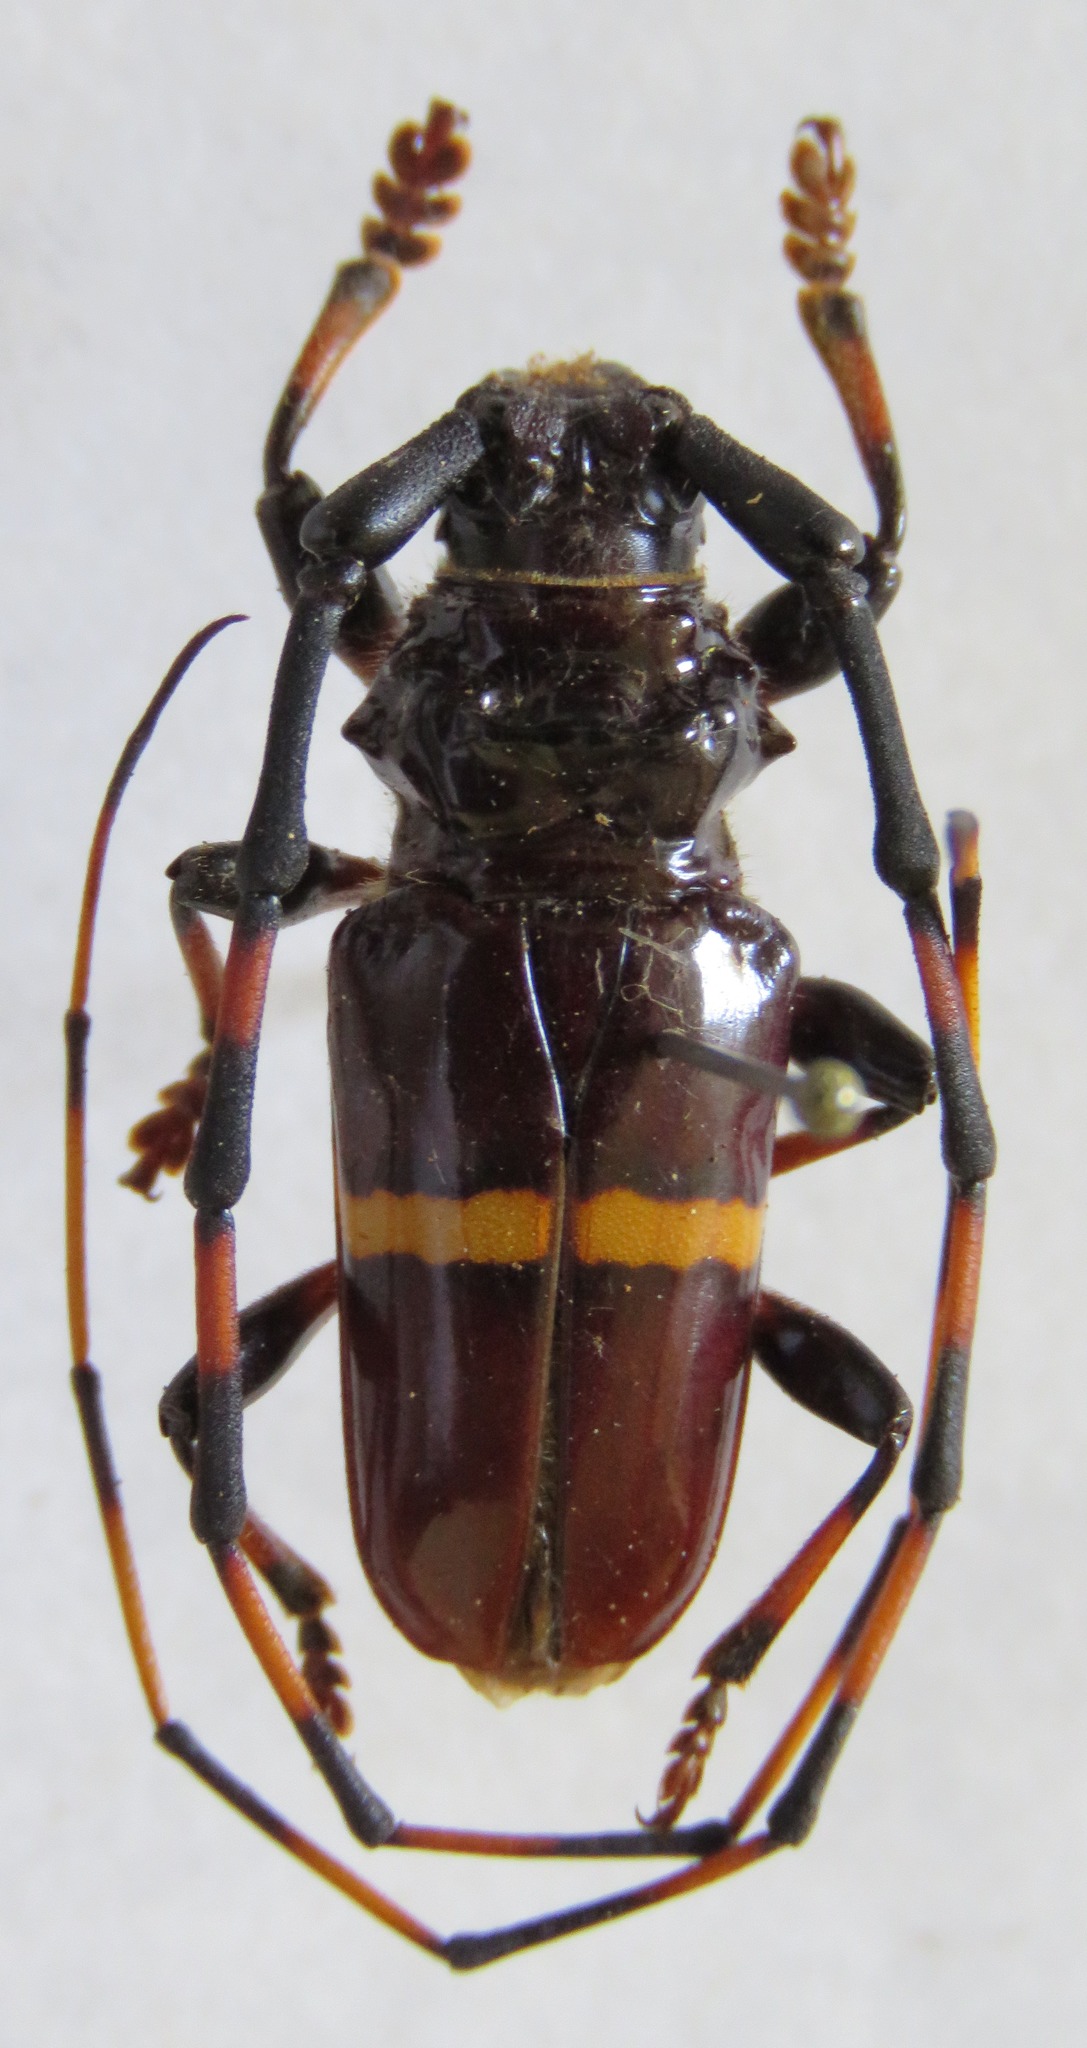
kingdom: Animalia
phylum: Arthropoda
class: Insecta
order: Coleoptera
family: Cerambycidae
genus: Trachyderes
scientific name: Trachyderes succinctus
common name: Mango longhorn
